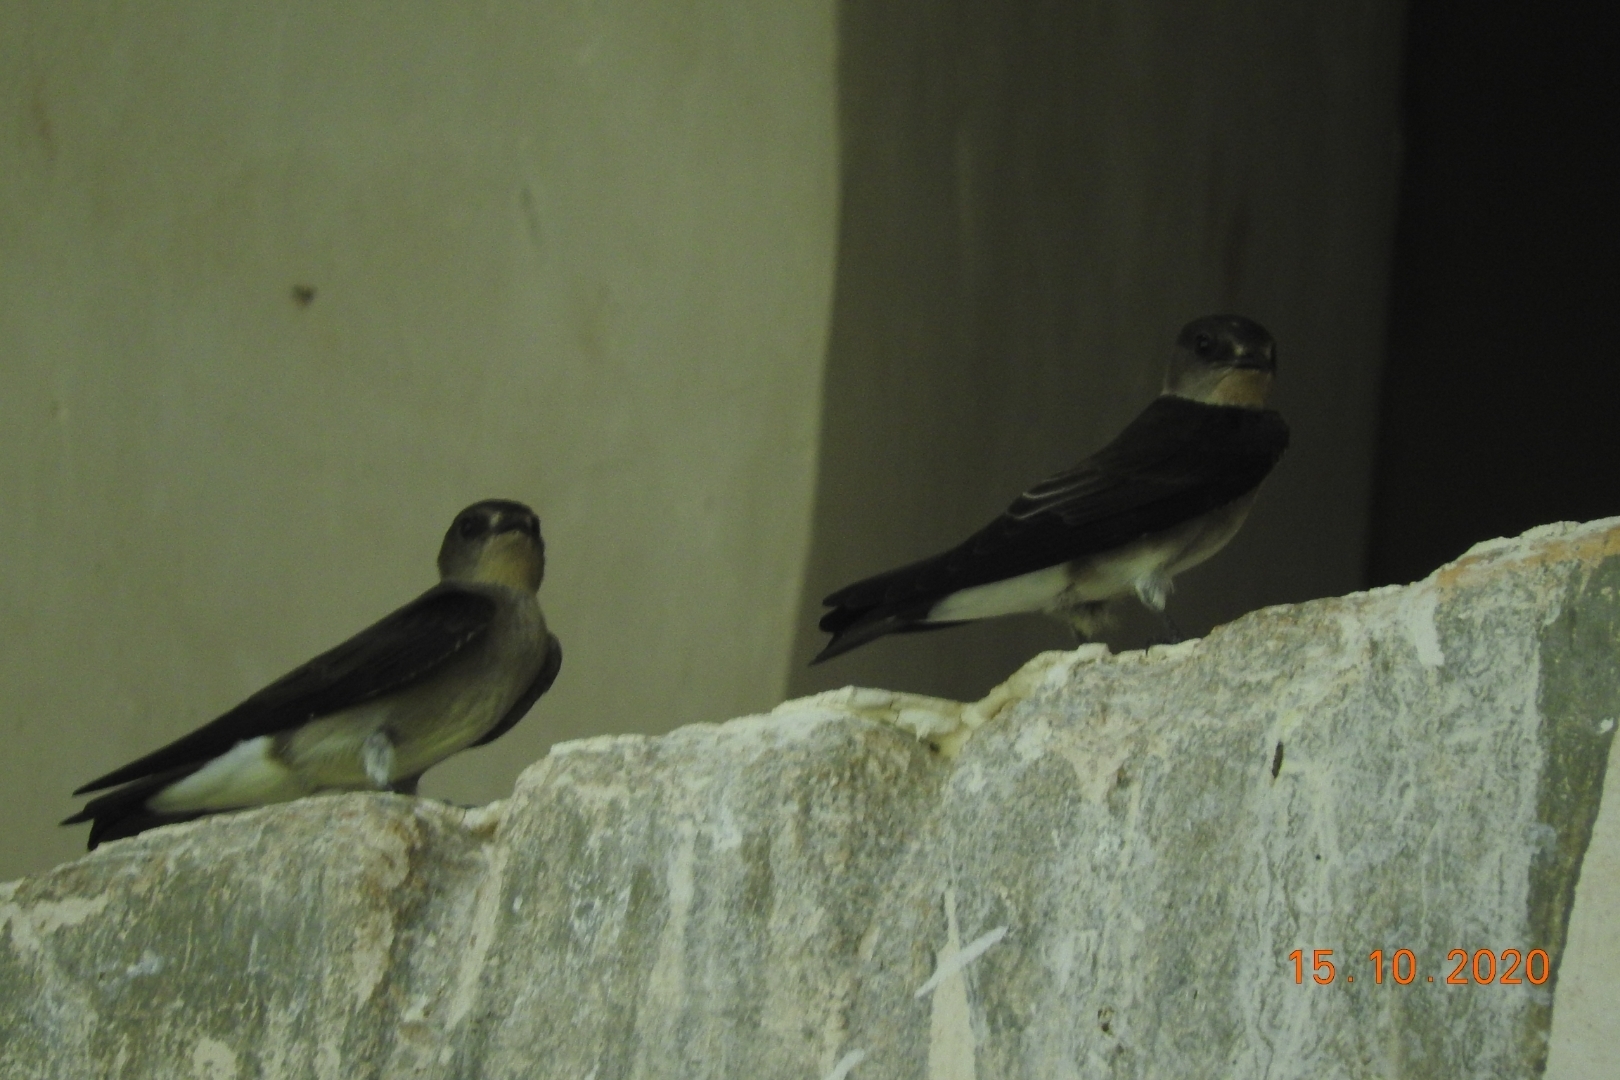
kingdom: Animalia
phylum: Chordata
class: Aves
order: Passeriformes
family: Hirundinidae
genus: Progne
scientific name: Progne chalybea
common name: Grey-breasted martin
